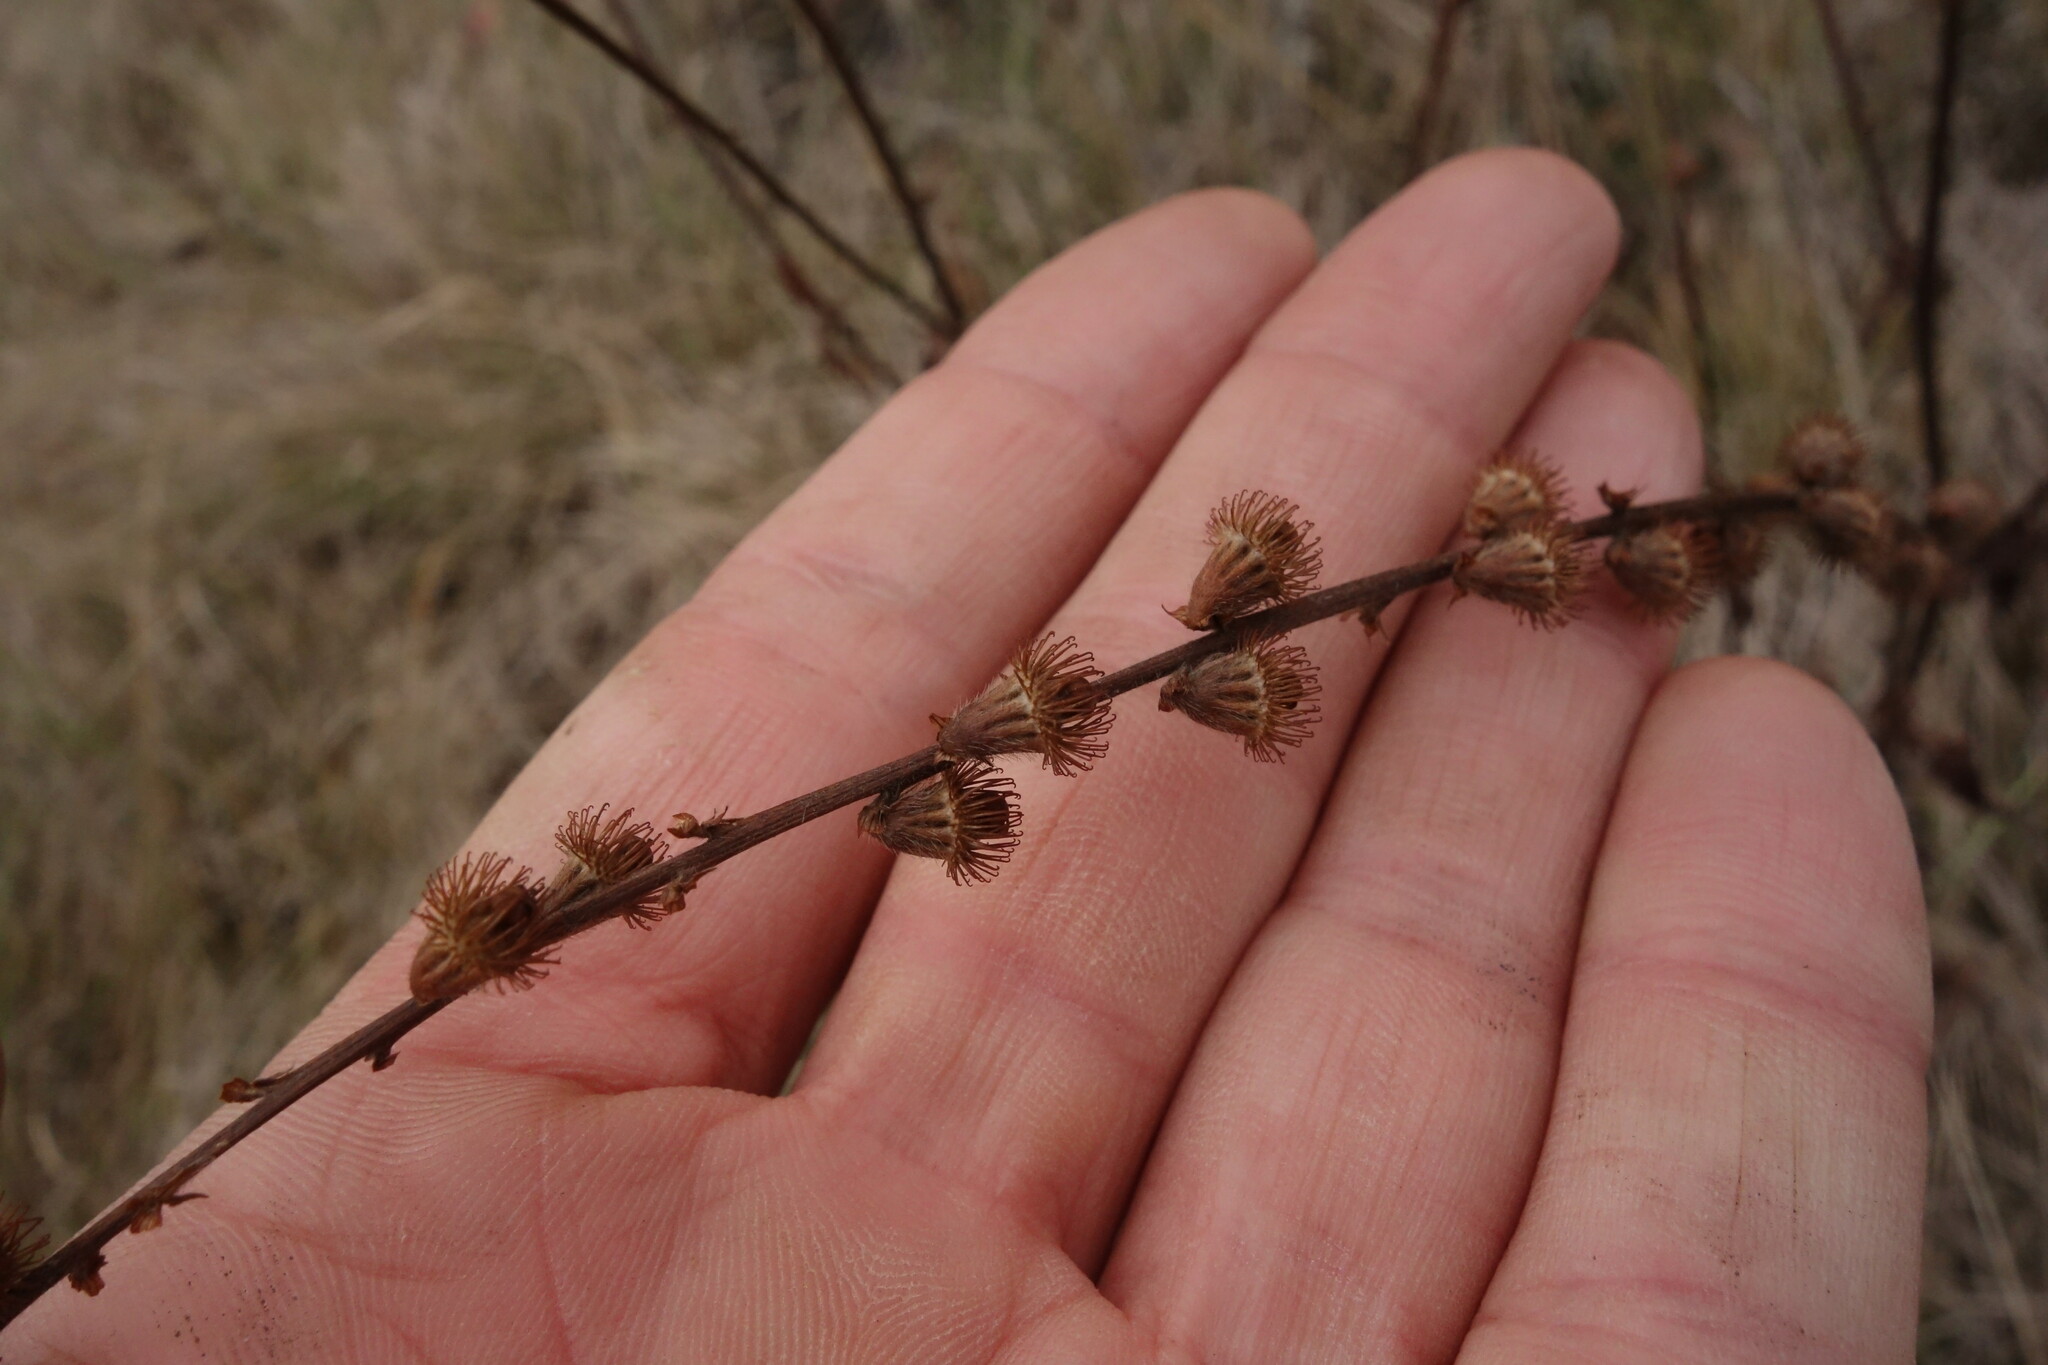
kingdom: Plantae
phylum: Tracheophyta
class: Magnoliopsida
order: Rosales
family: Rosaceae
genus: Agrimonia
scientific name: Agrimonia eupatoria
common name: Agrimony
